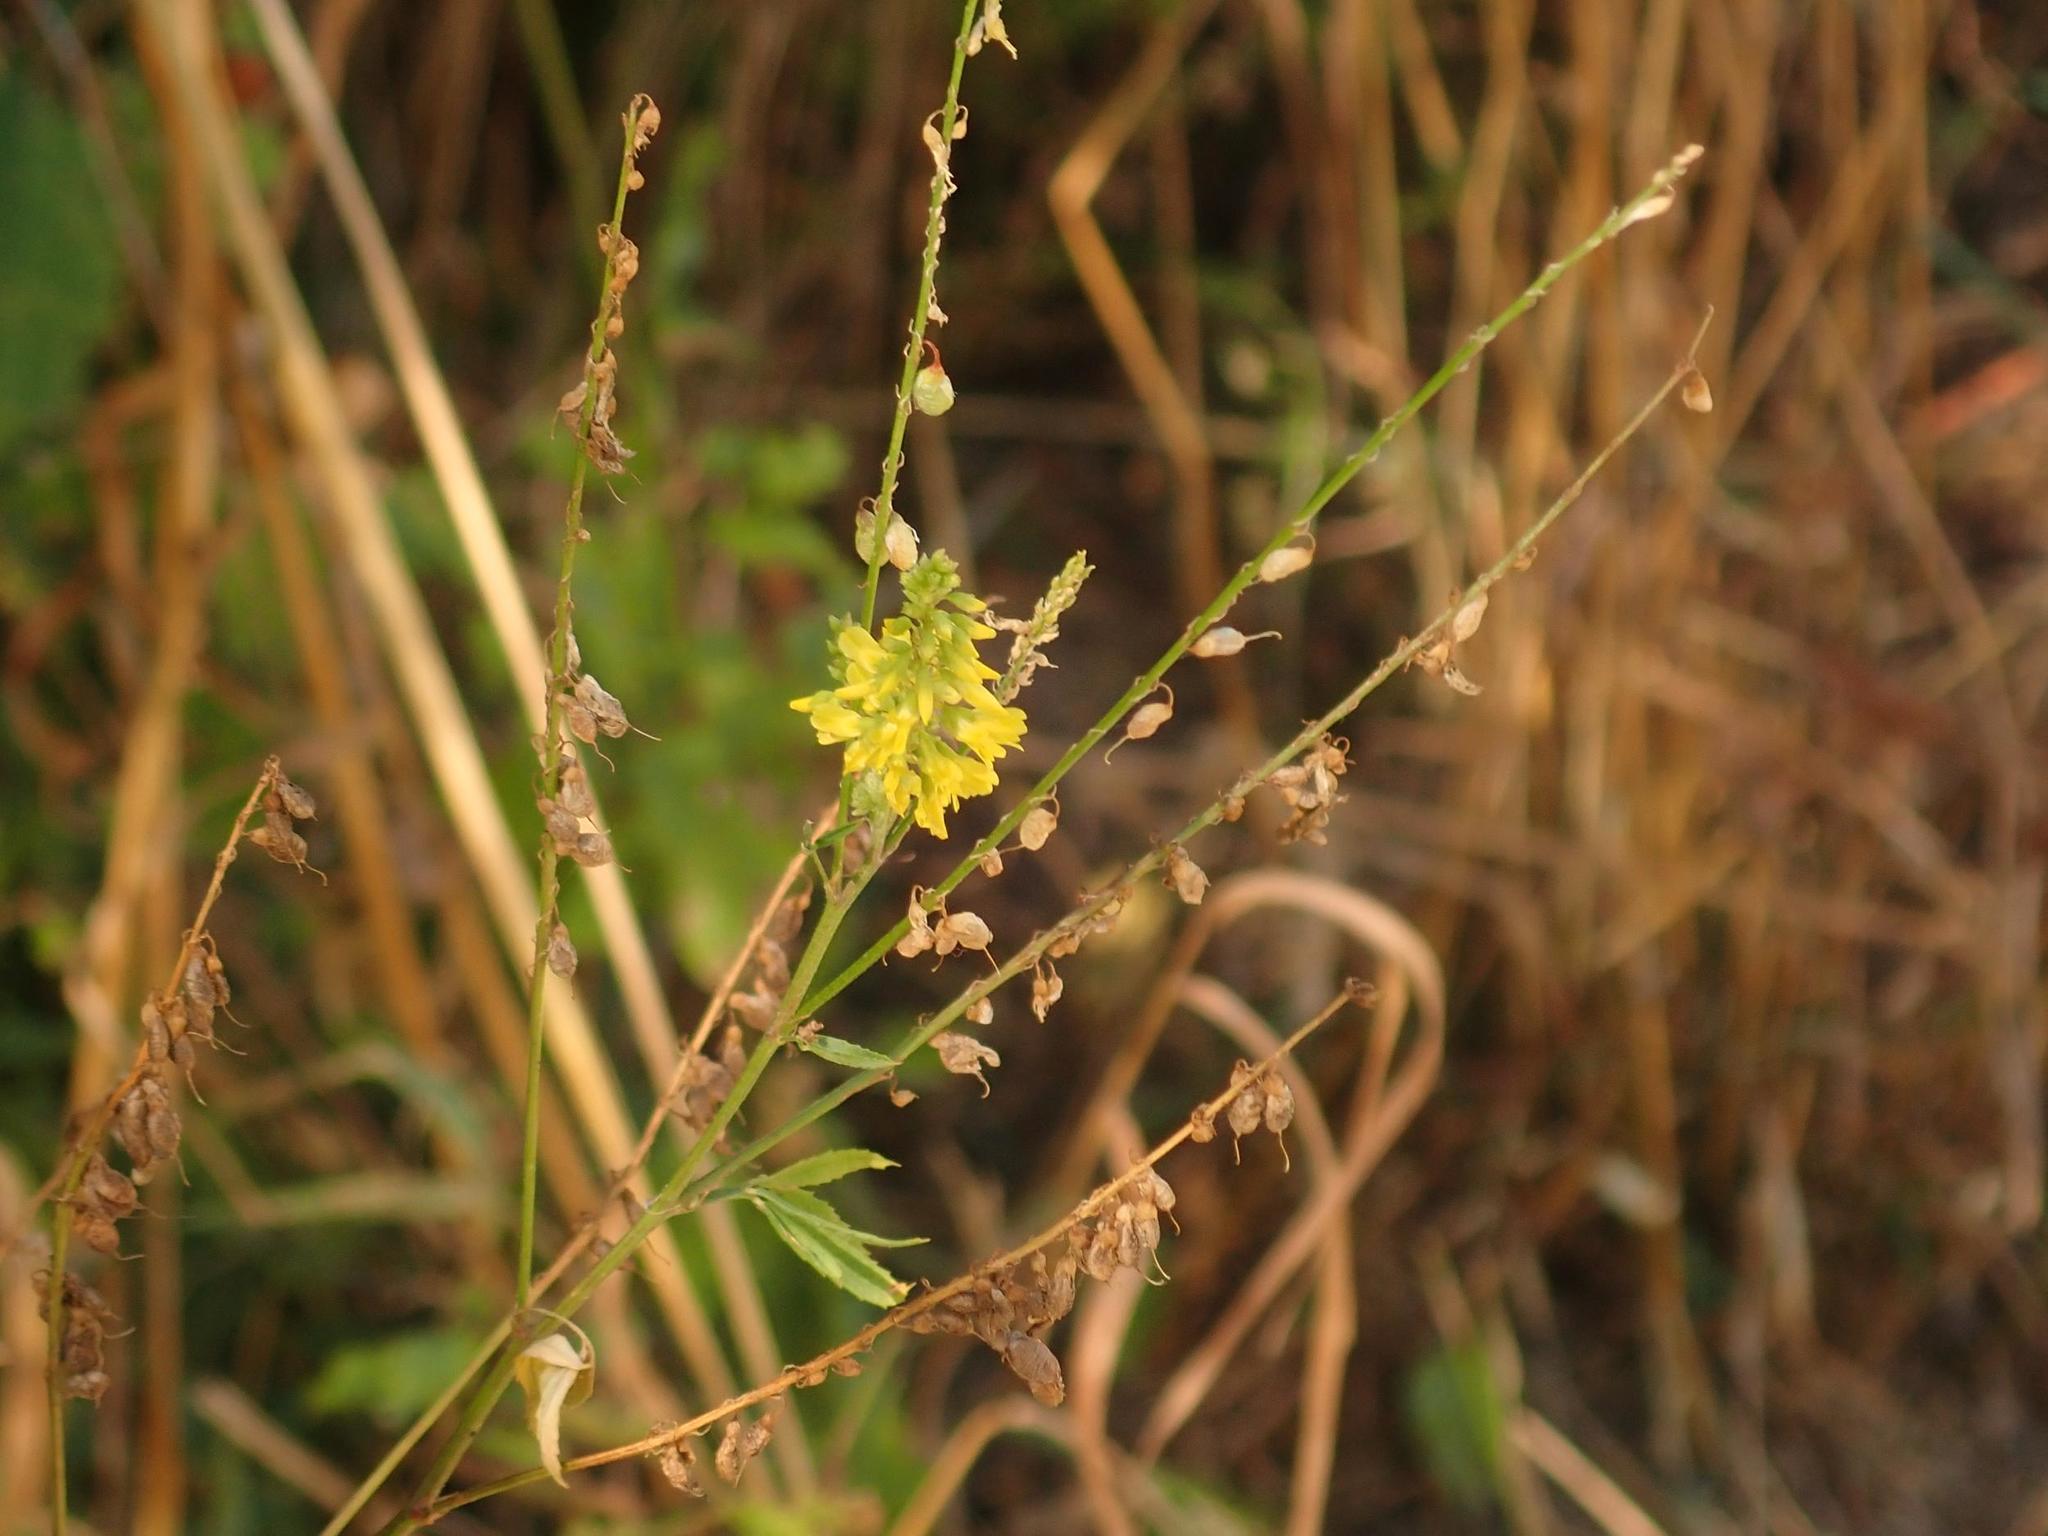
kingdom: Plantae
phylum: Tracheophyta
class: Magnoliopsida
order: Fabales
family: Fabaceae
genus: Melilotus
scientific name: Melilotus officinalis
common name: Sweetclover
